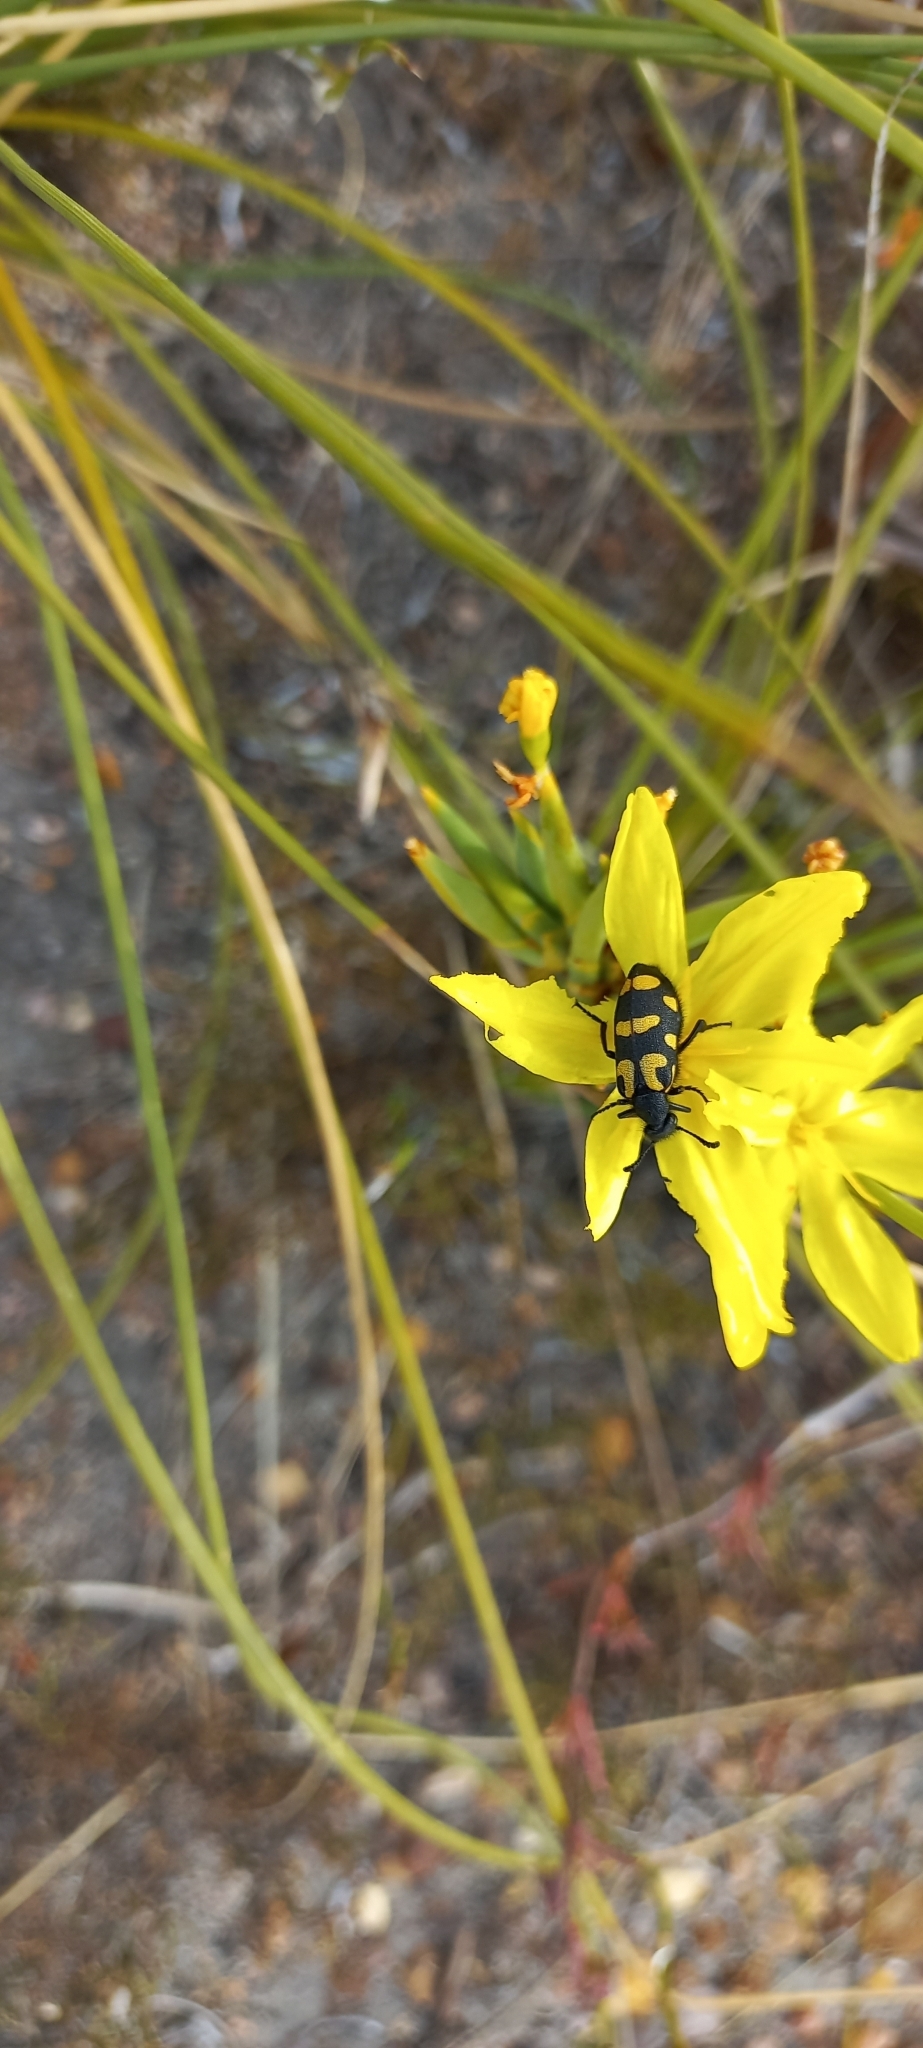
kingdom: Animalia
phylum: Arthropoda
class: Insecta
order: Coleoptera
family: Meloidae
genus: Ceroctis
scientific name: Ceroctis capensis
